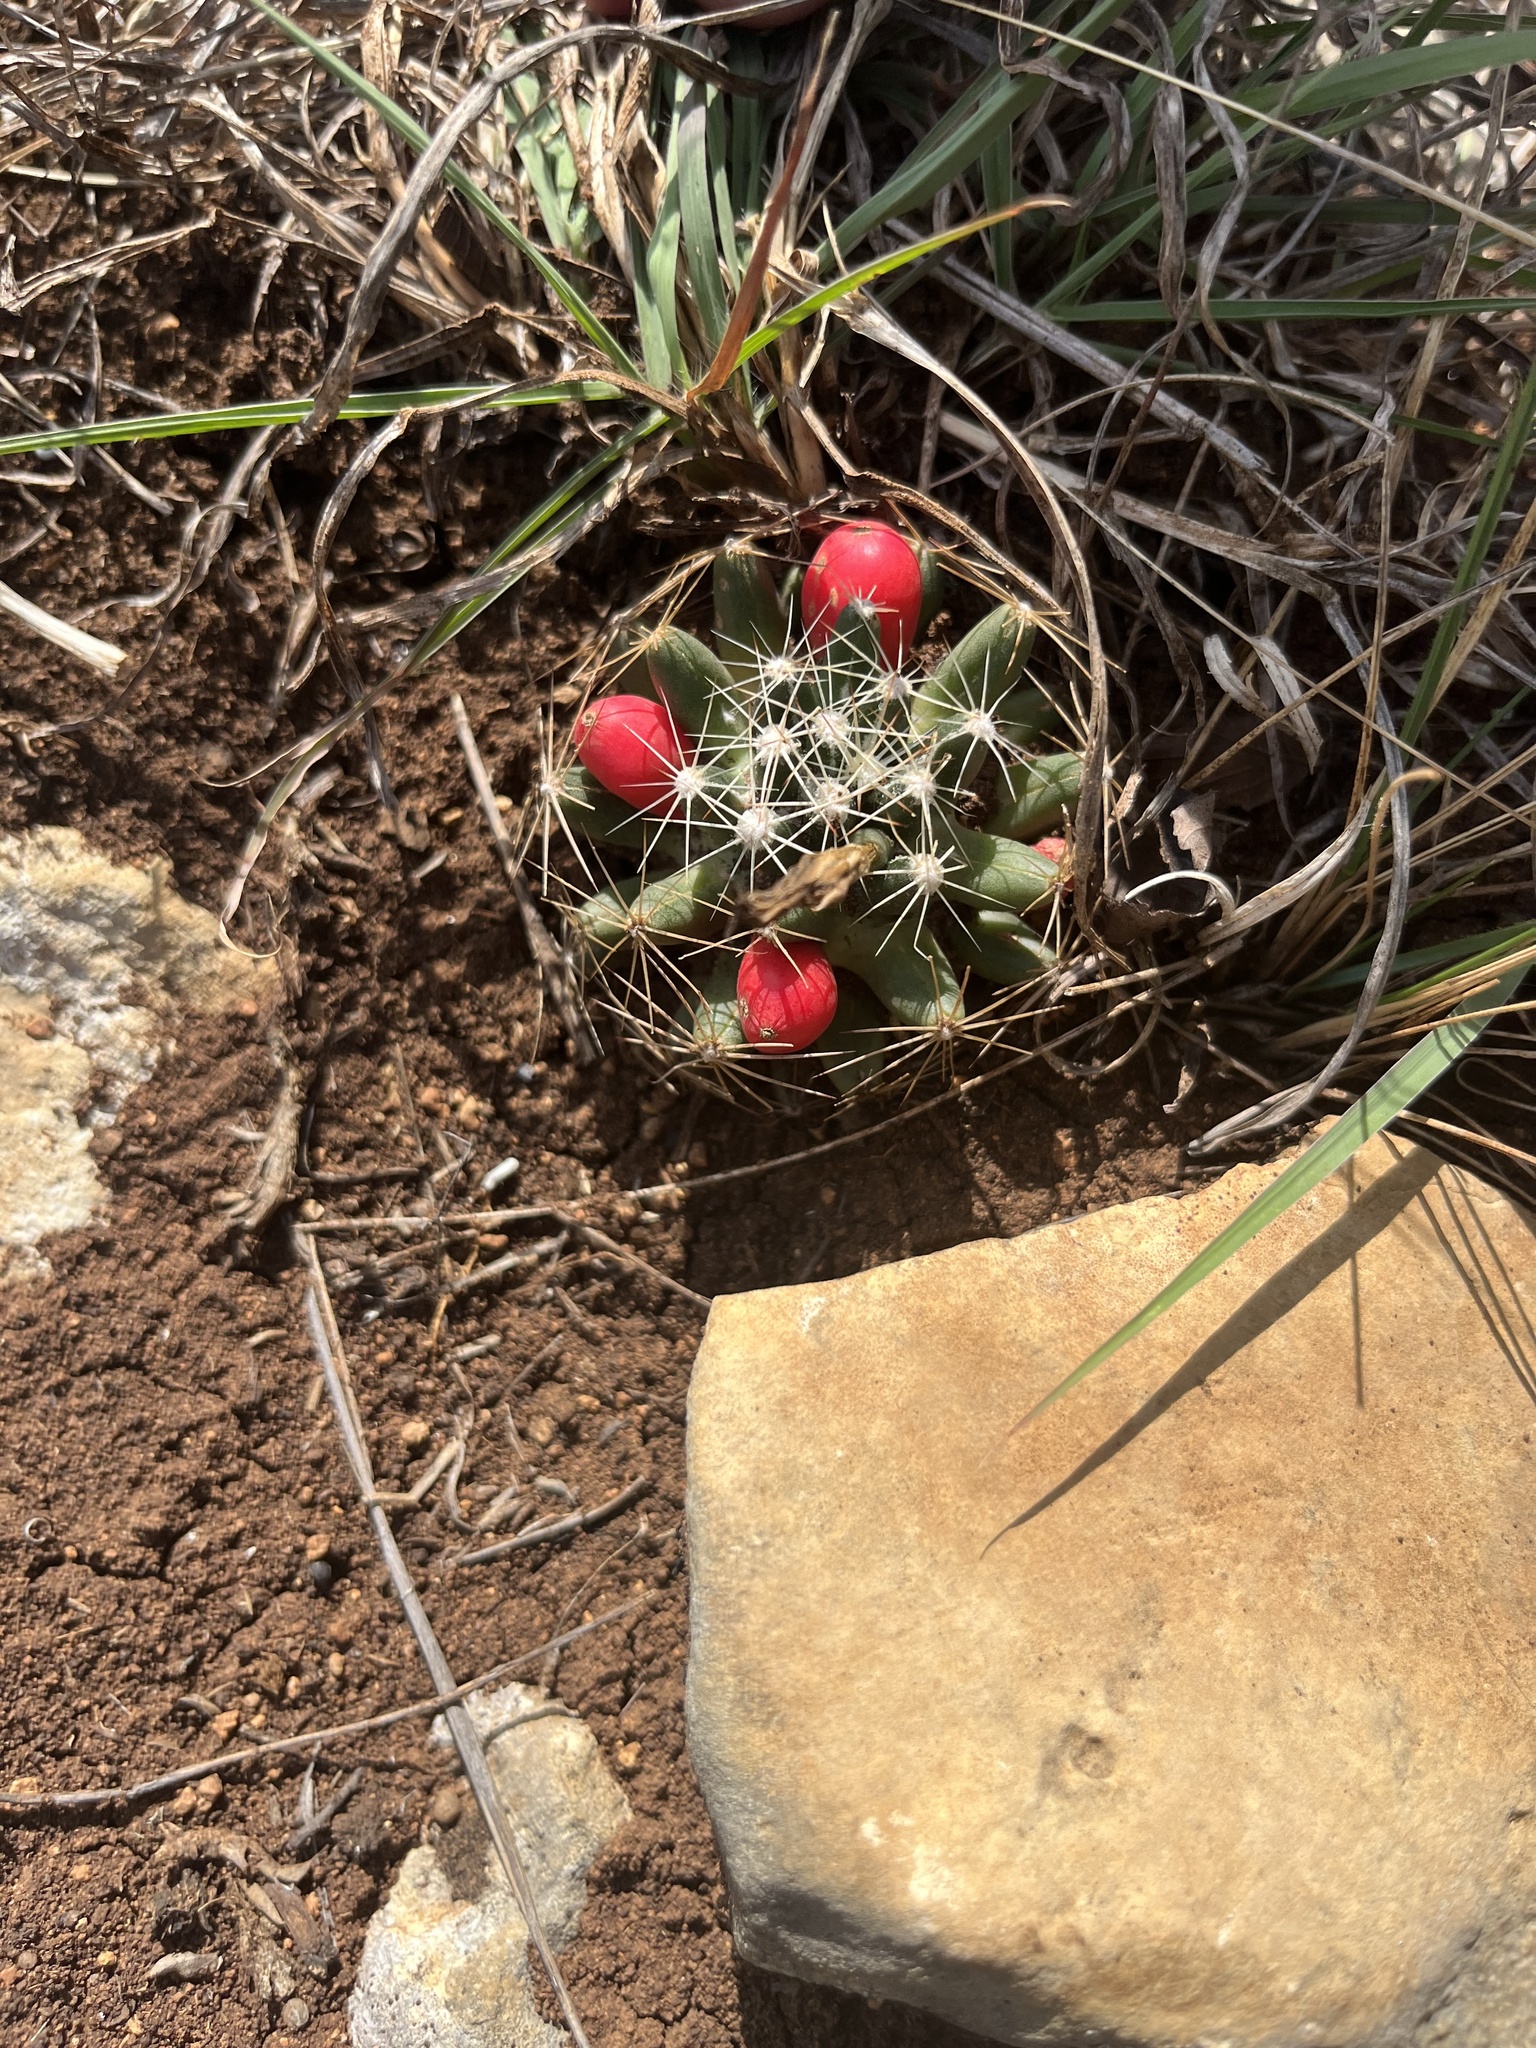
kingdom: Plantae
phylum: Tracheophyta
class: Magnoliopsida
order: Caryophyllales
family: Cactaceae
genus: Pelecyphora
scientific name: Pelecyphora missouriensis
